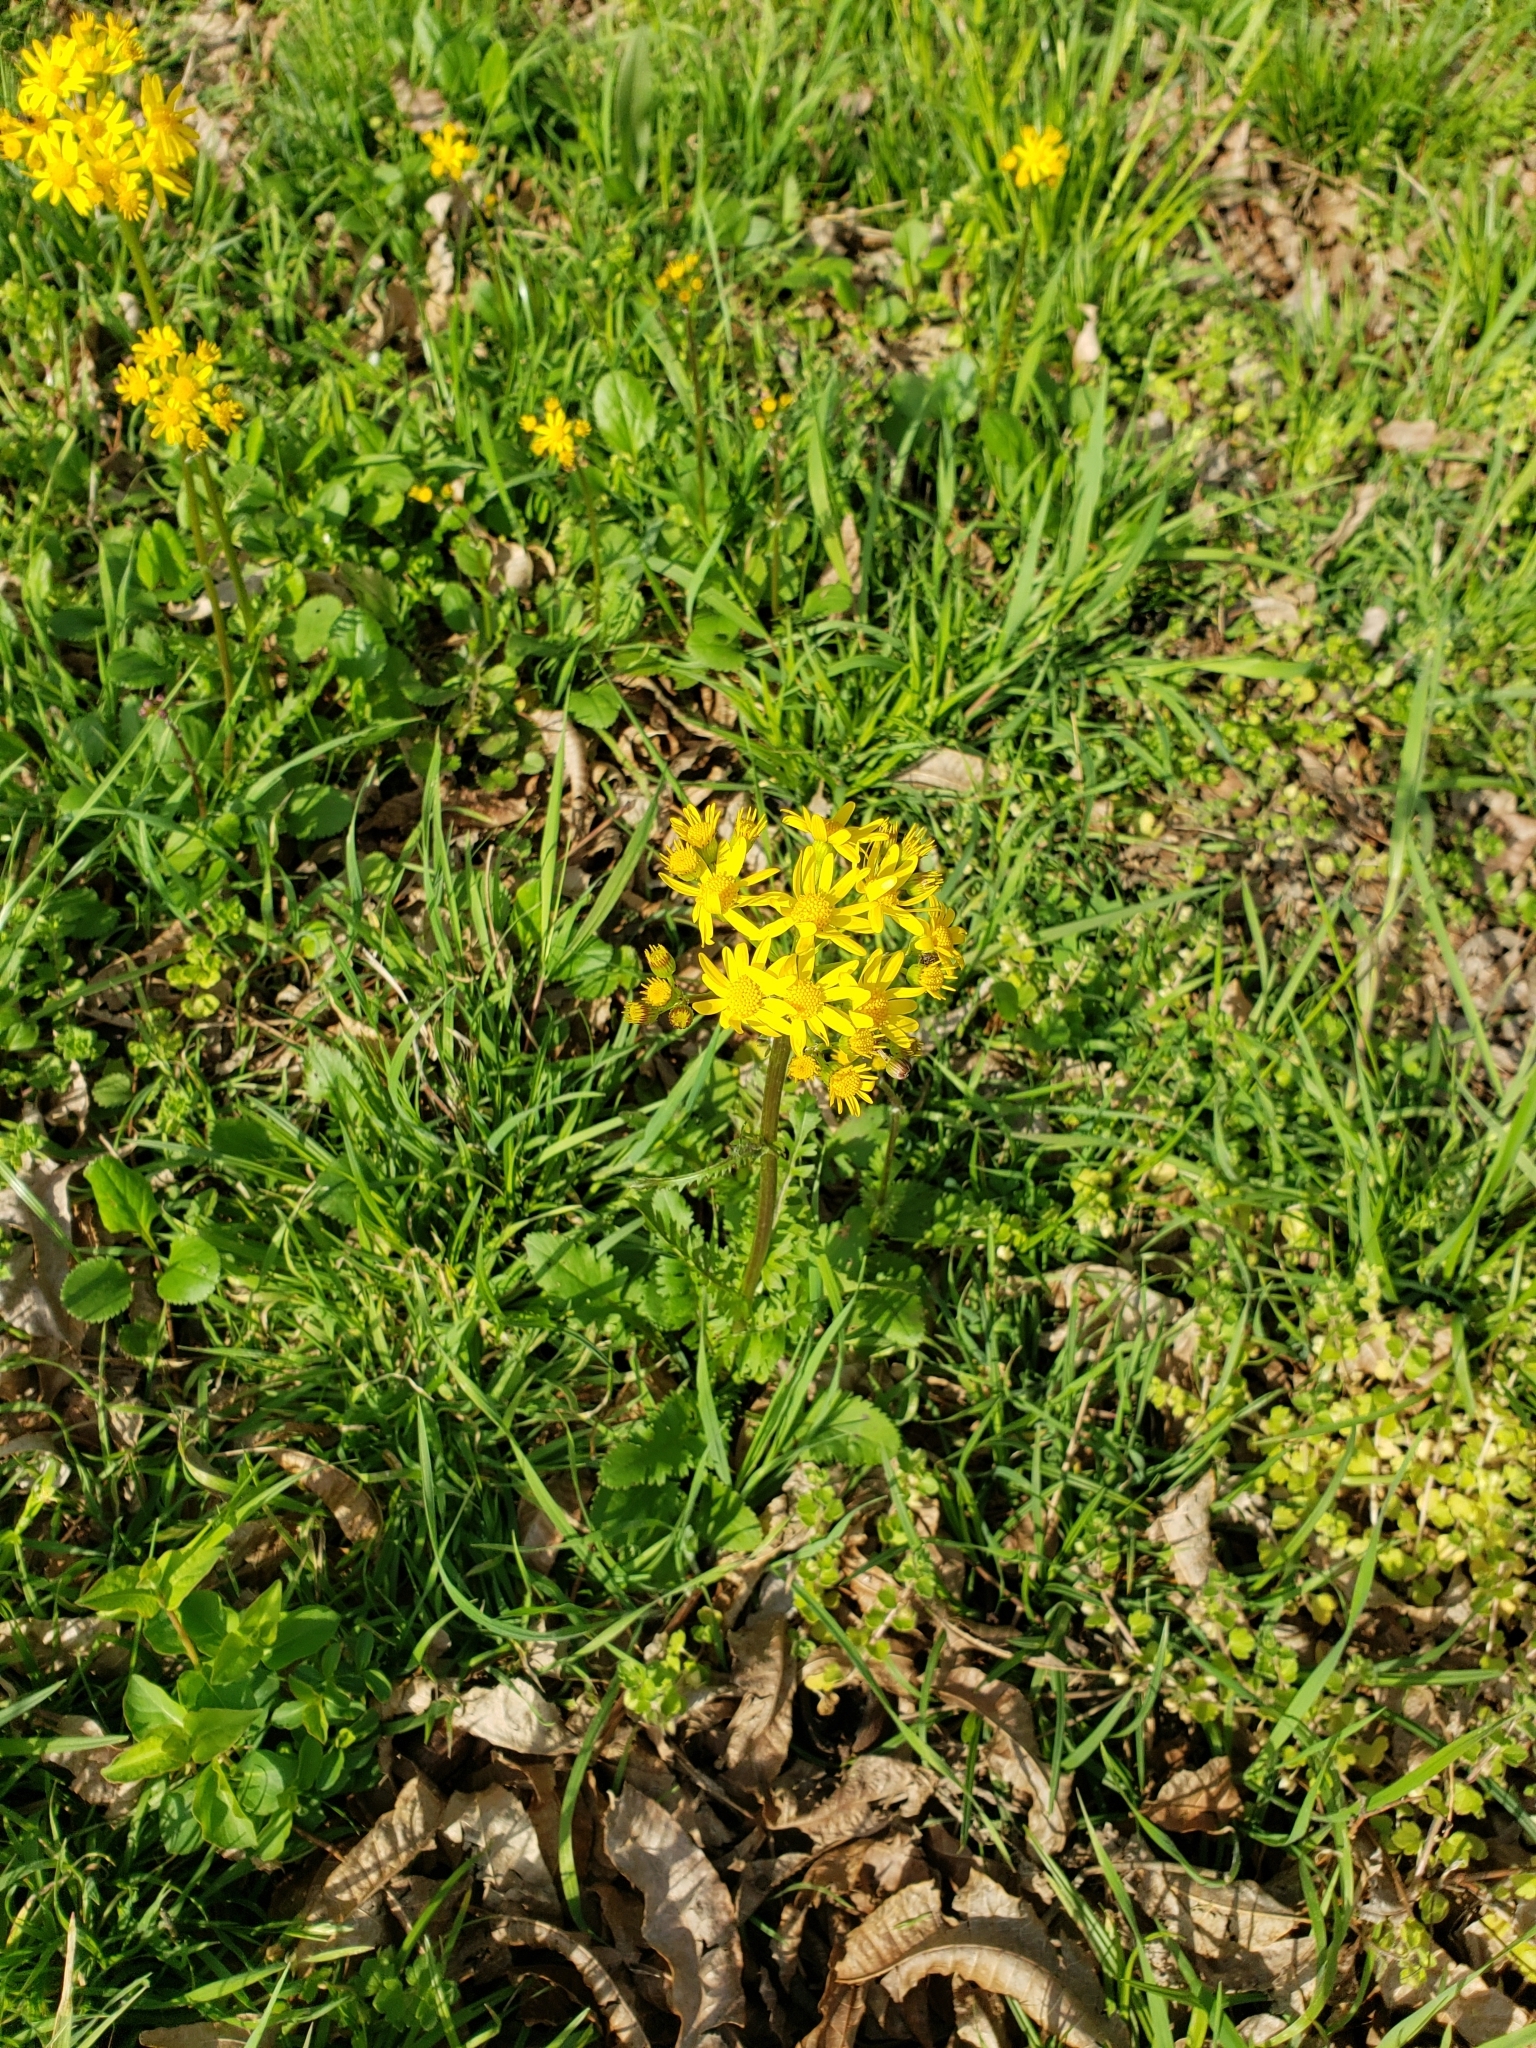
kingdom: Plantae
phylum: Tracheophyta
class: Magnoliopsida
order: Asterales
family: Asteraceae
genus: Packera
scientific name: Packera obovata
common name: Round-leaf ragwort
